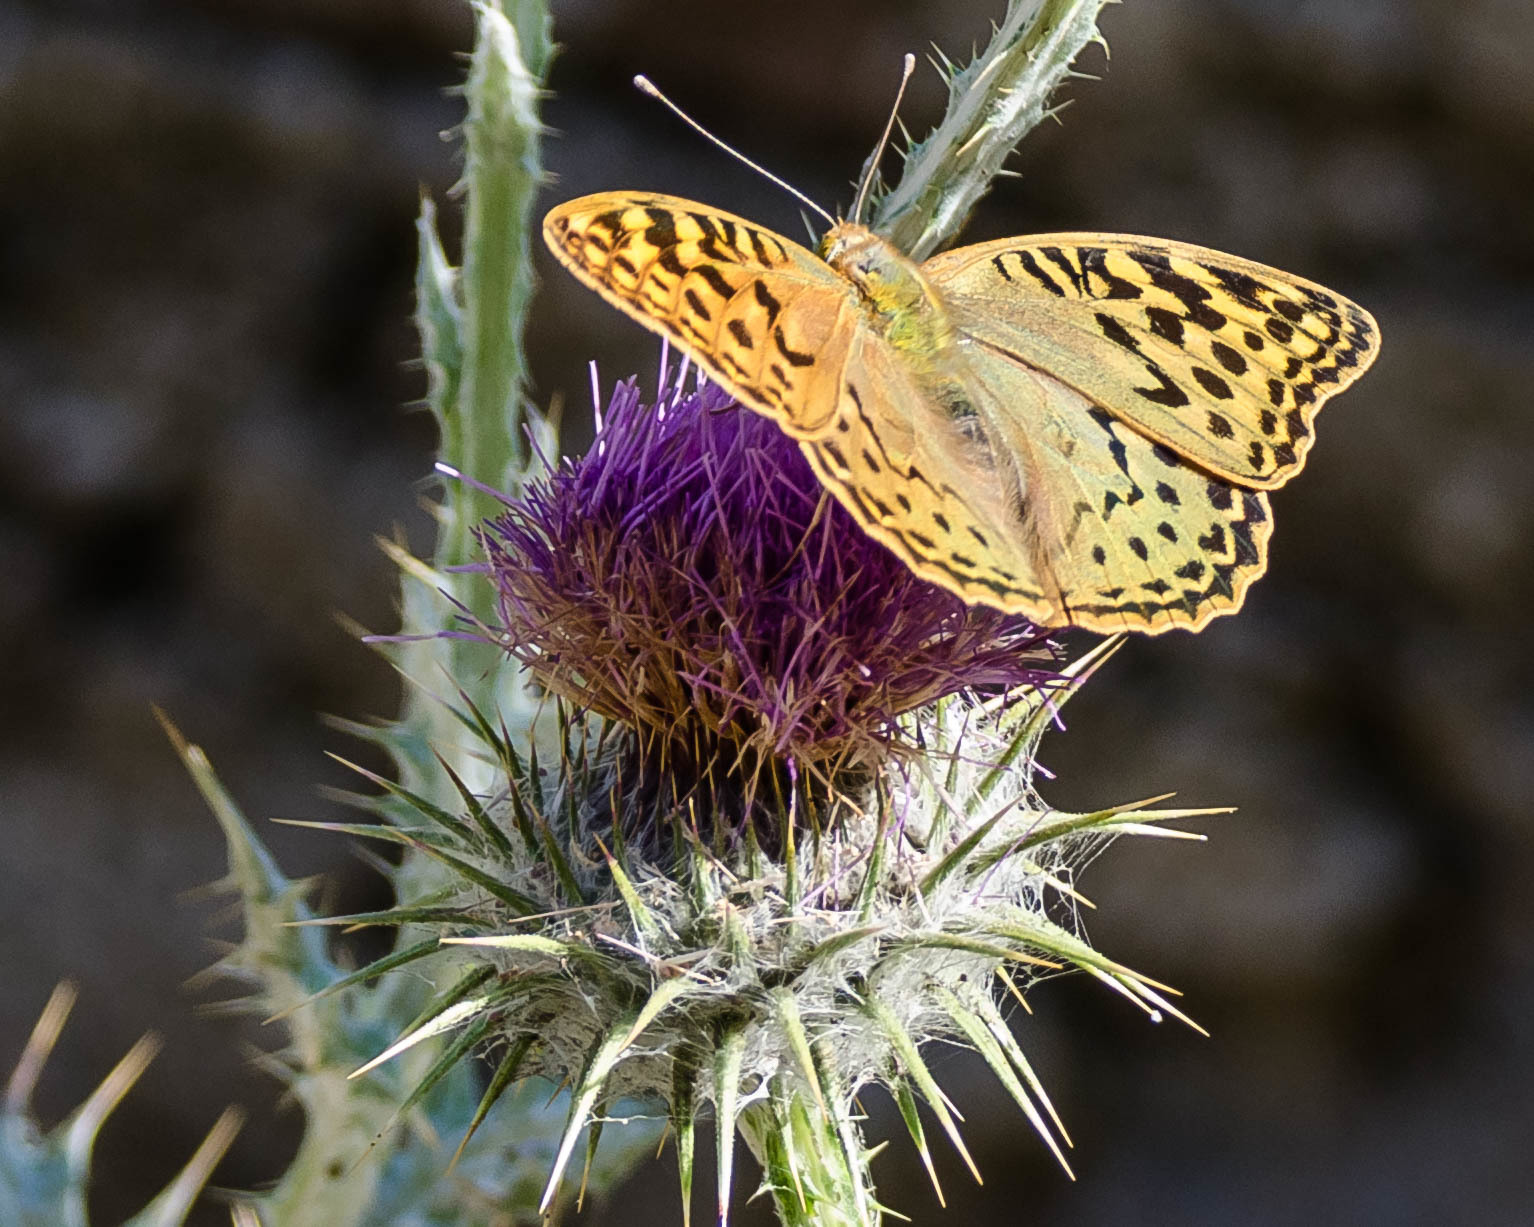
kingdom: Animalia
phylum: Arthropoda
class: Insecta
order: Lepidoptera
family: Nymphalidae
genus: Damora
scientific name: Damora pandora
